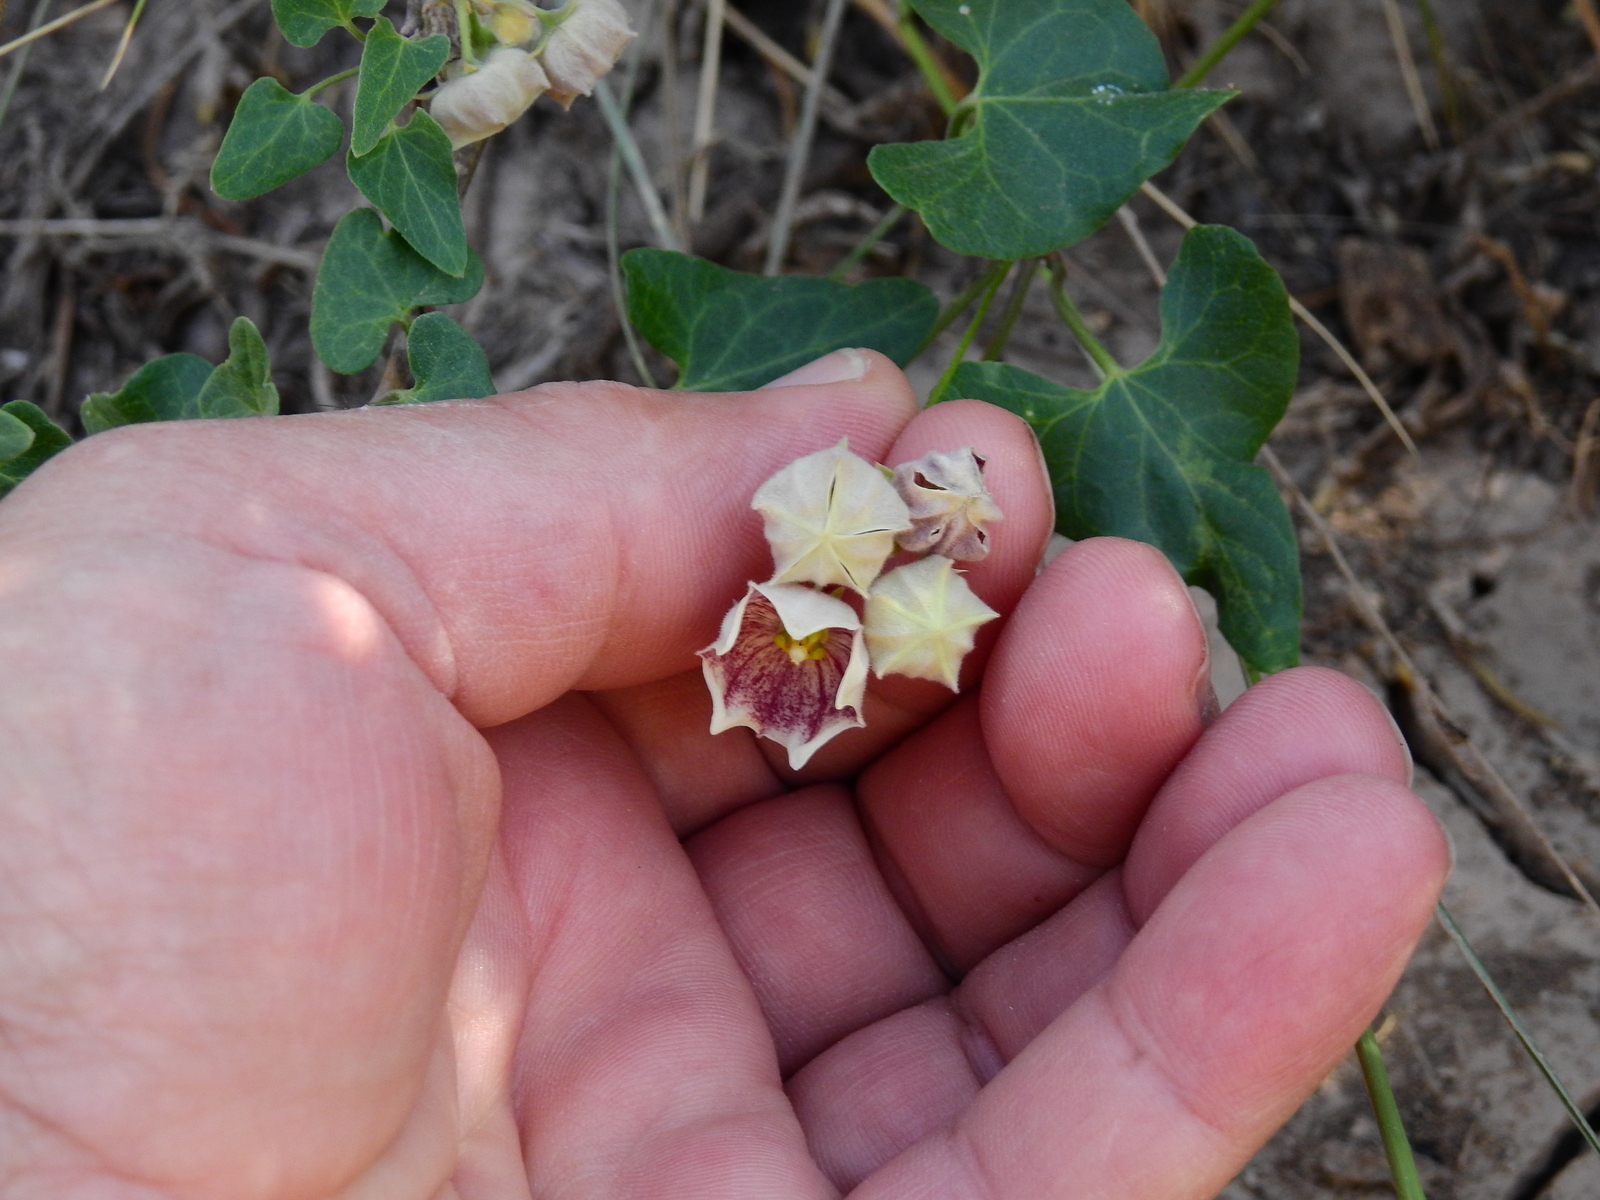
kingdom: Plantae
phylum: Tracheophyta
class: Magnoliopsida
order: Gentianales
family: Apocynaceae
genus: Philibertia
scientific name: Philibertia gilliesii
